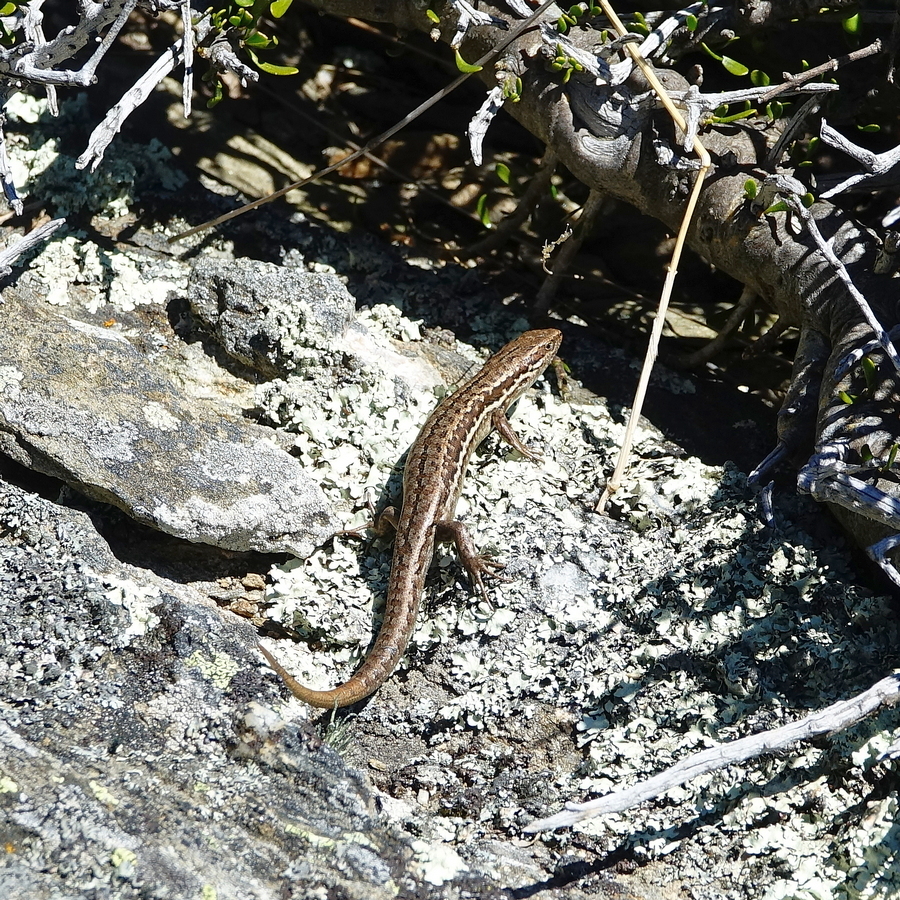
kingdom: Animalia
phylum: Chordata
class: Squamata
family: Scincidae
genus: Oligosoma
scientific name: Oligosoma maccanni
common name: Mccann’s skink
